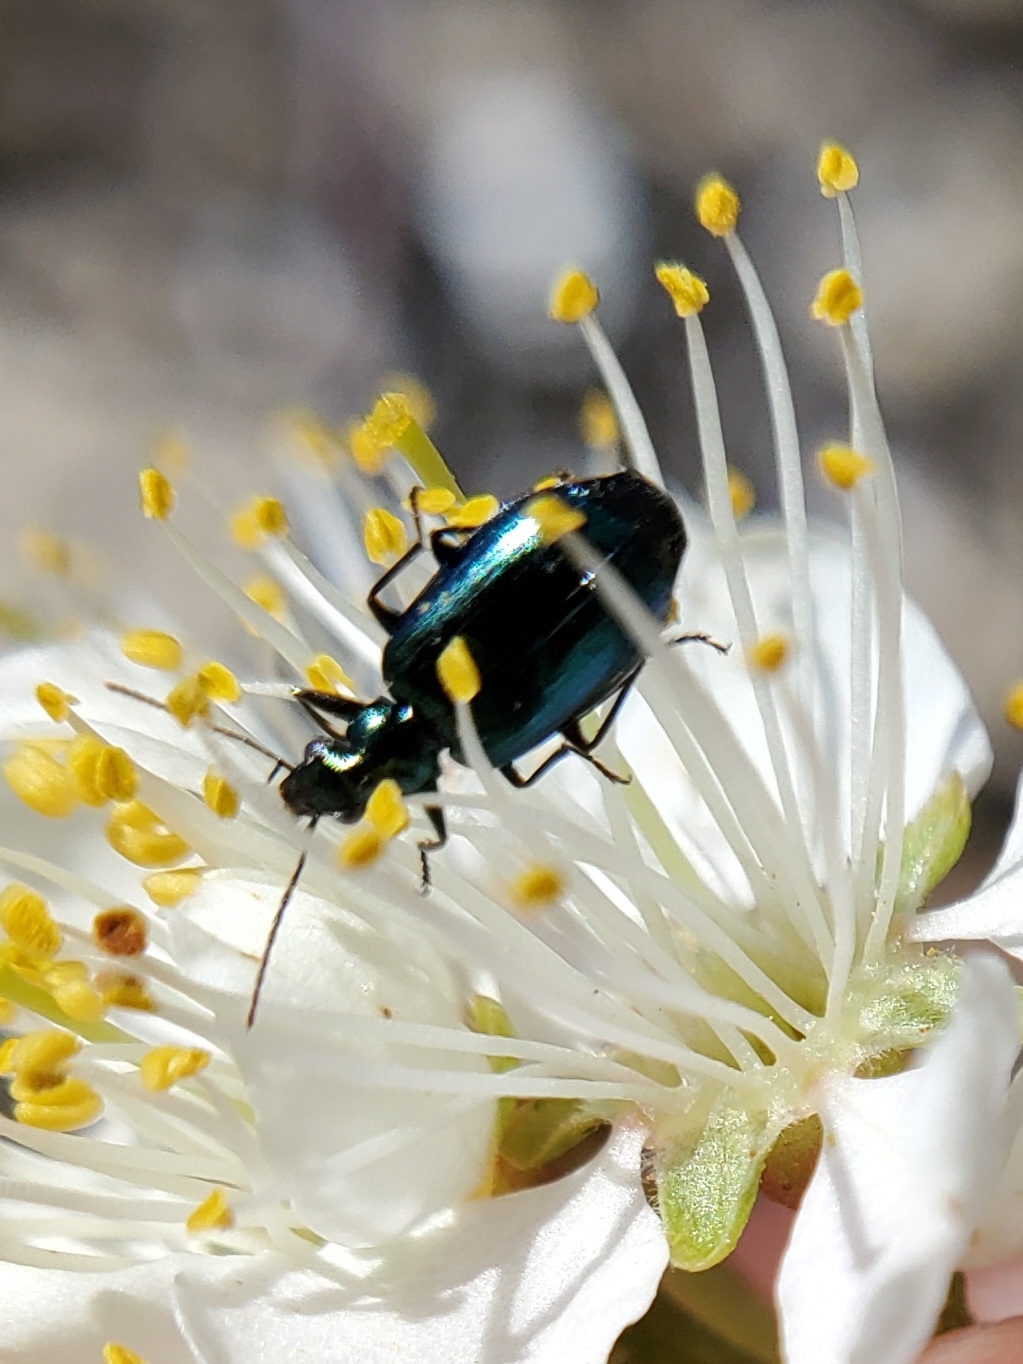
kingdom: Animalia
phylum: Arthropoda
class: Insecta
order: Coleoptera
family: Carabidae
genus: Lebia
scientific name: Lebia viridis
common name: Flower lebia beetle
